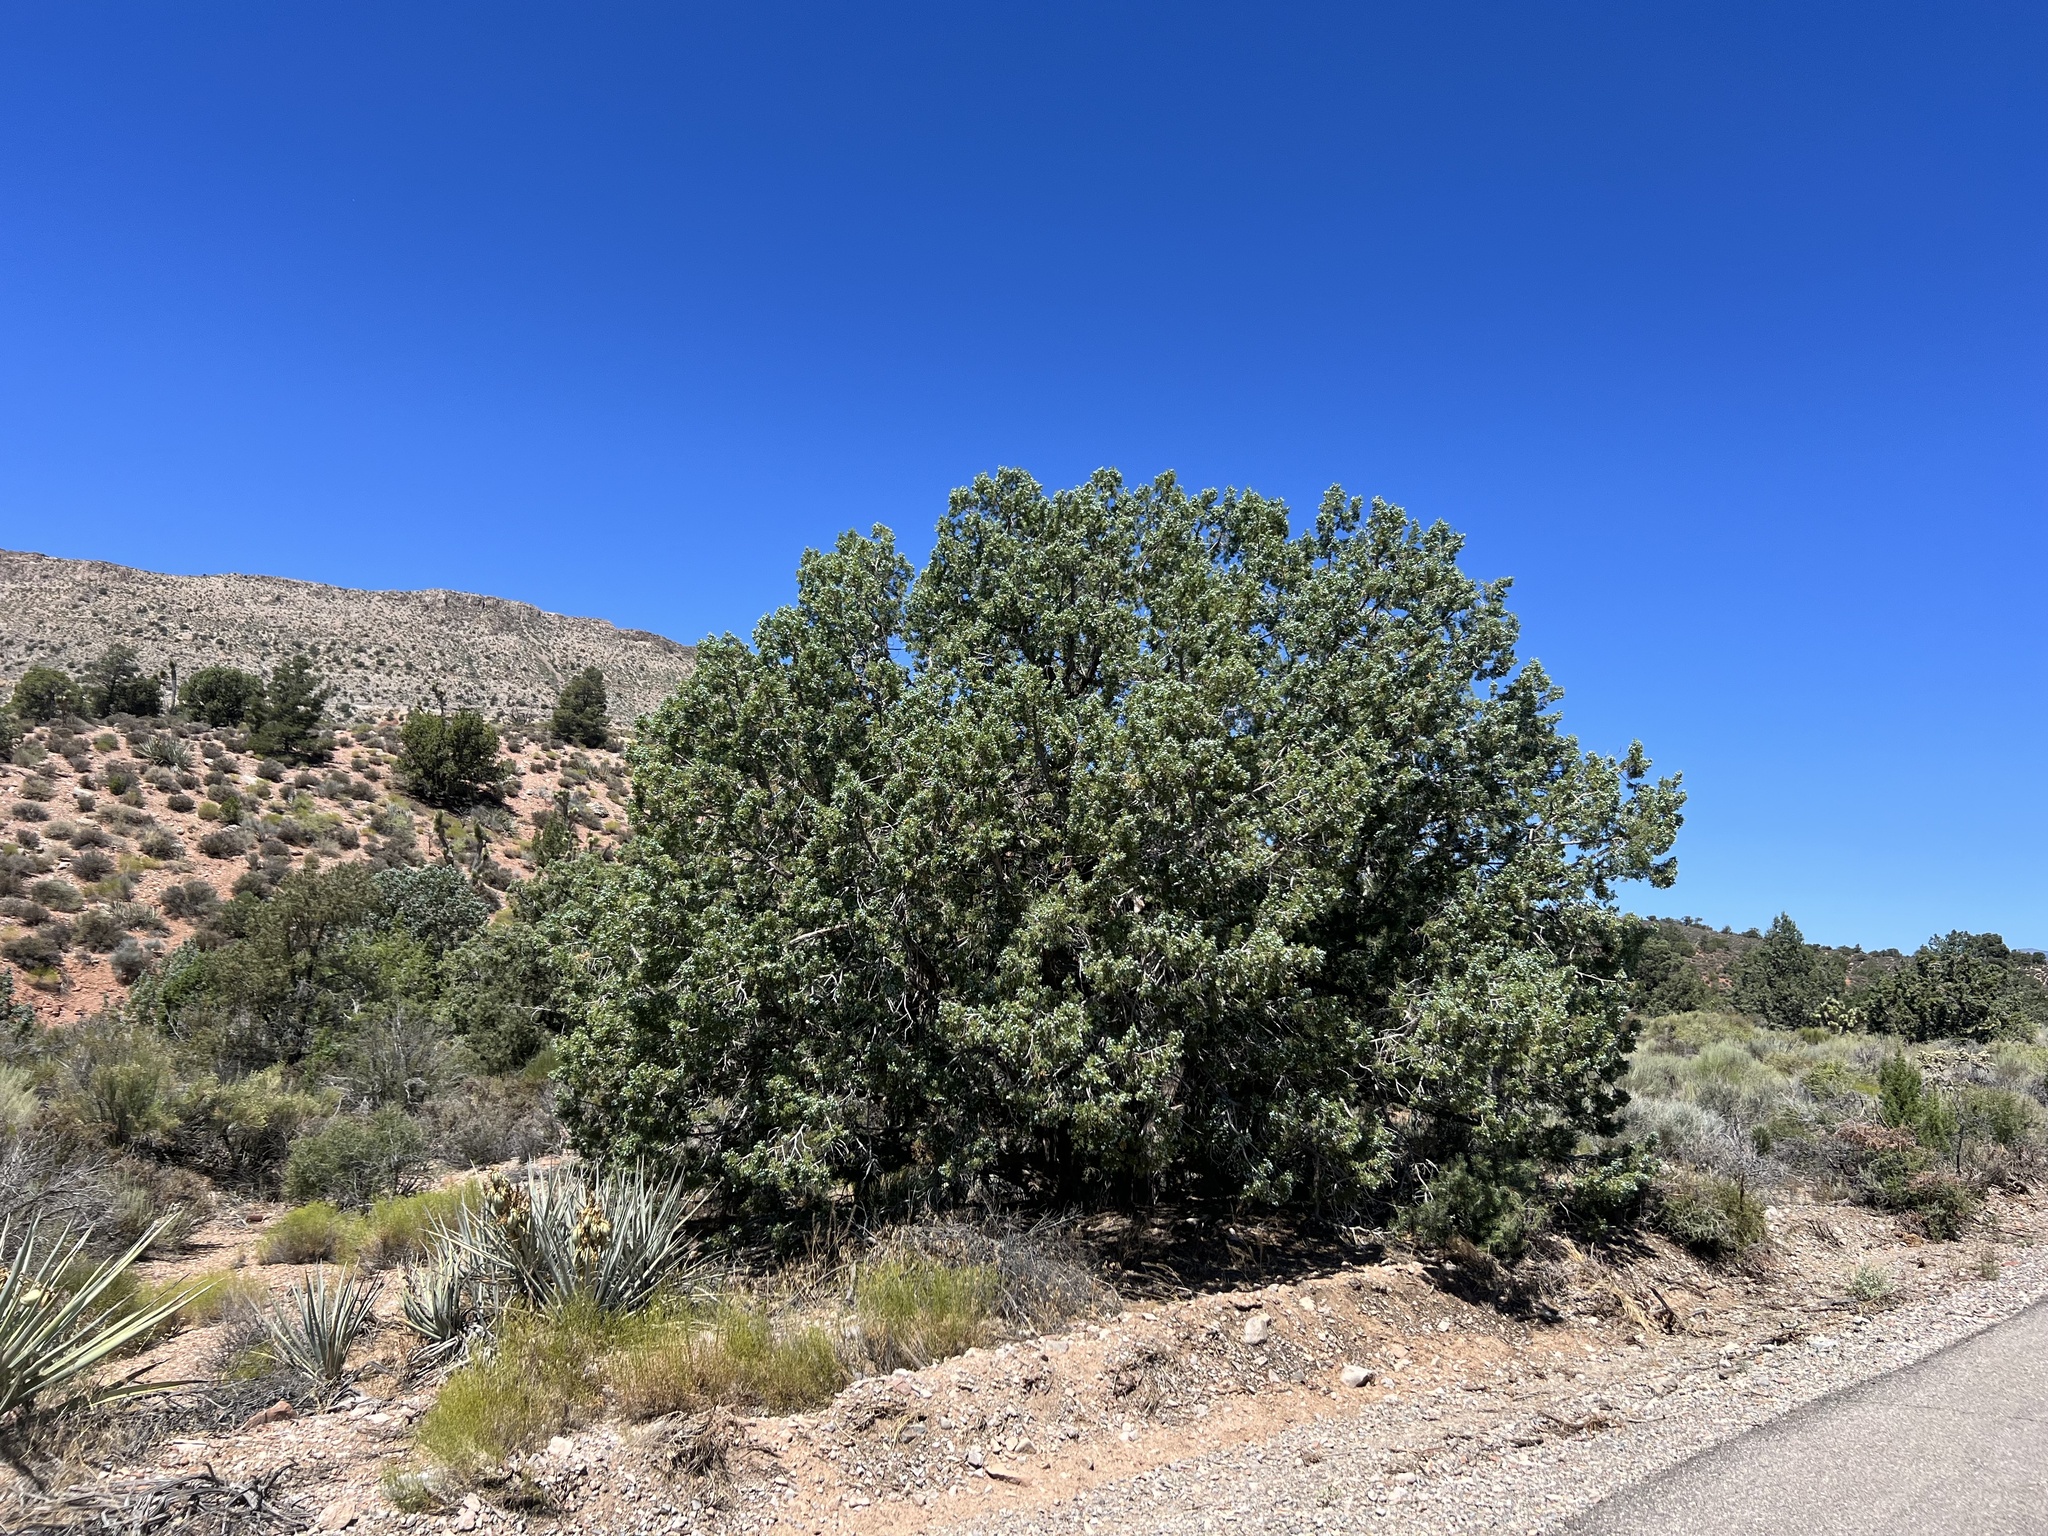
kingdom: Plantae
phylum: Tracheophyta
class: Pinopsida
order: Pinales
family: Cupressaceae
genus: Juniperus
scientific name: Juniperus osteosperma
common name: Utah juniper
